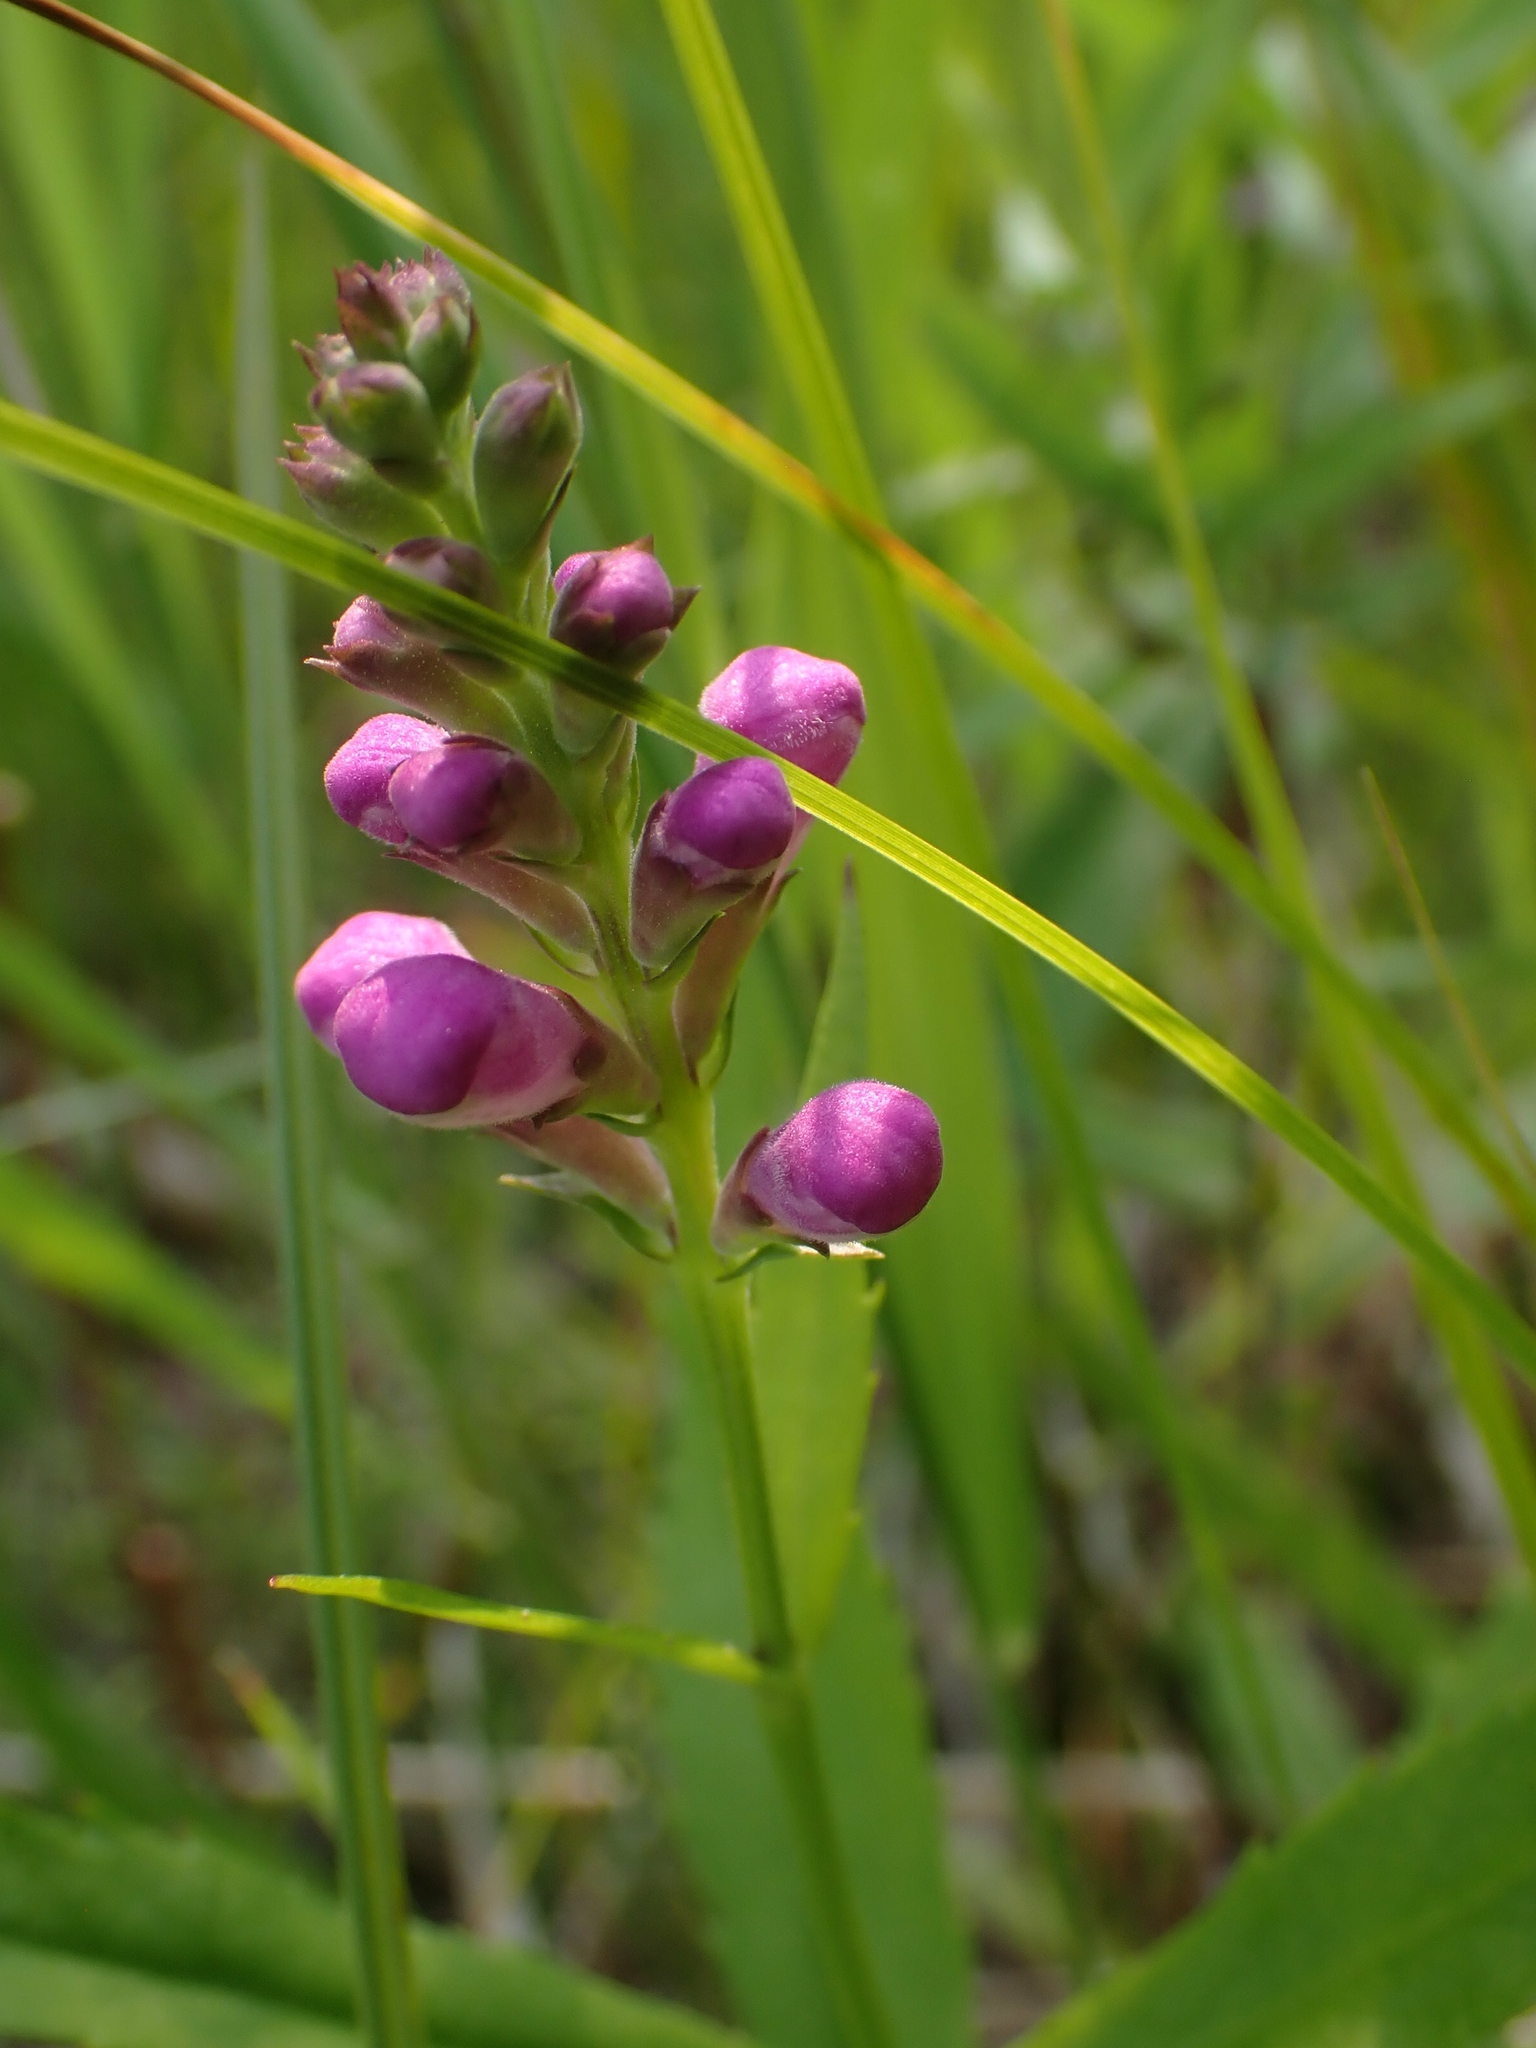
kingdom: Plantae
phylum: Tracheophyta
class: Magnoliopsida
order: Lamiales
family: Lamiaceae
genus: Physostegia
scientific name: Physostegia virginiana
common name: Obedient-plant
